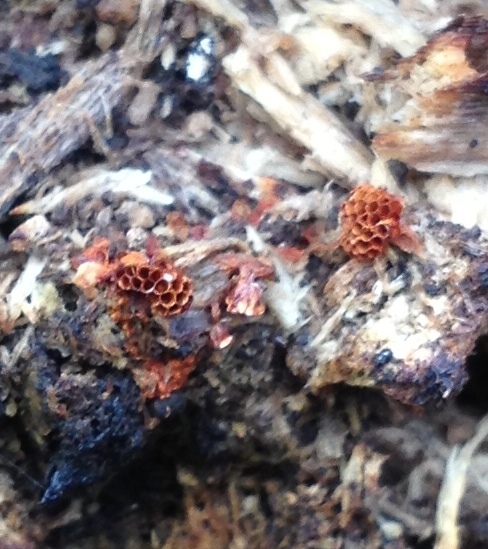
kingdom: Protozoa
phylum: Mycetozoa
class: Myxomycetes
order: Trichiales
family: Trichiaceae
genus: Metatrichia
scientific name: Metatrichia vesparia
